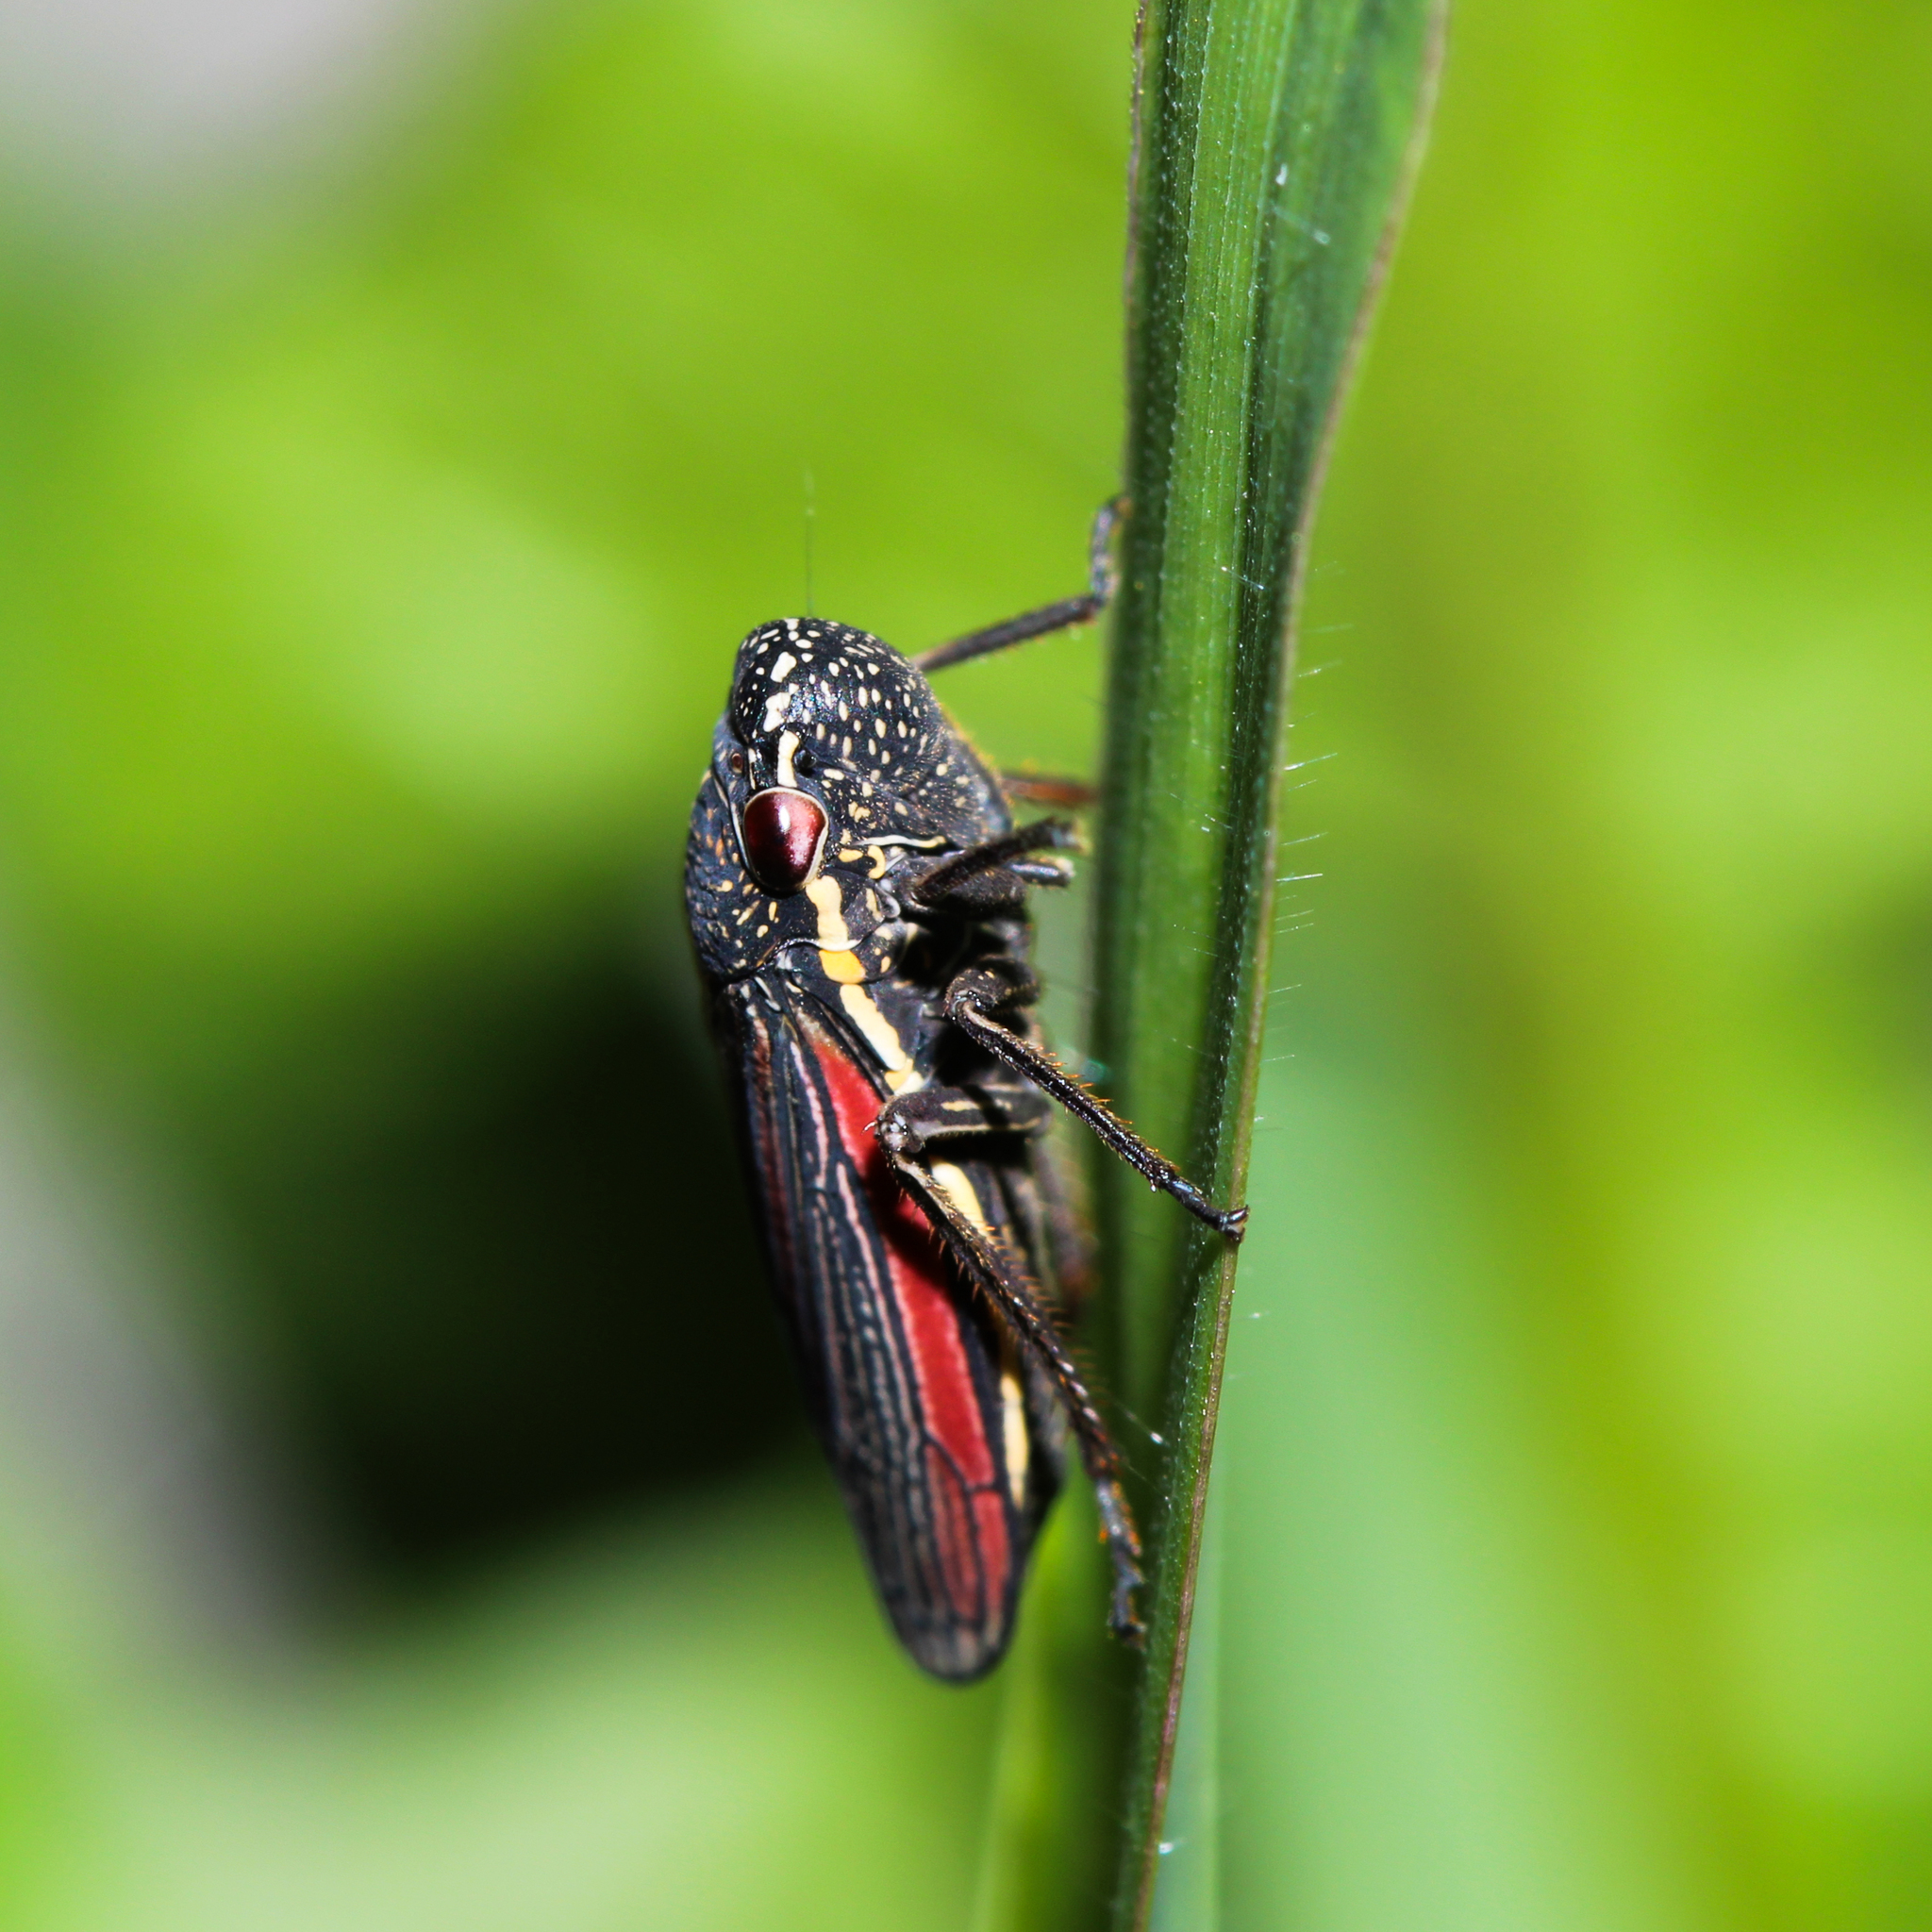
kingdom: Animalia
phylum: Arthropoda
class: Insecta
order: Hemiptera
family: Cicadellidae
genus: Cuerna
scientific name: Cuerna striata
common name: Striped leafhopper
